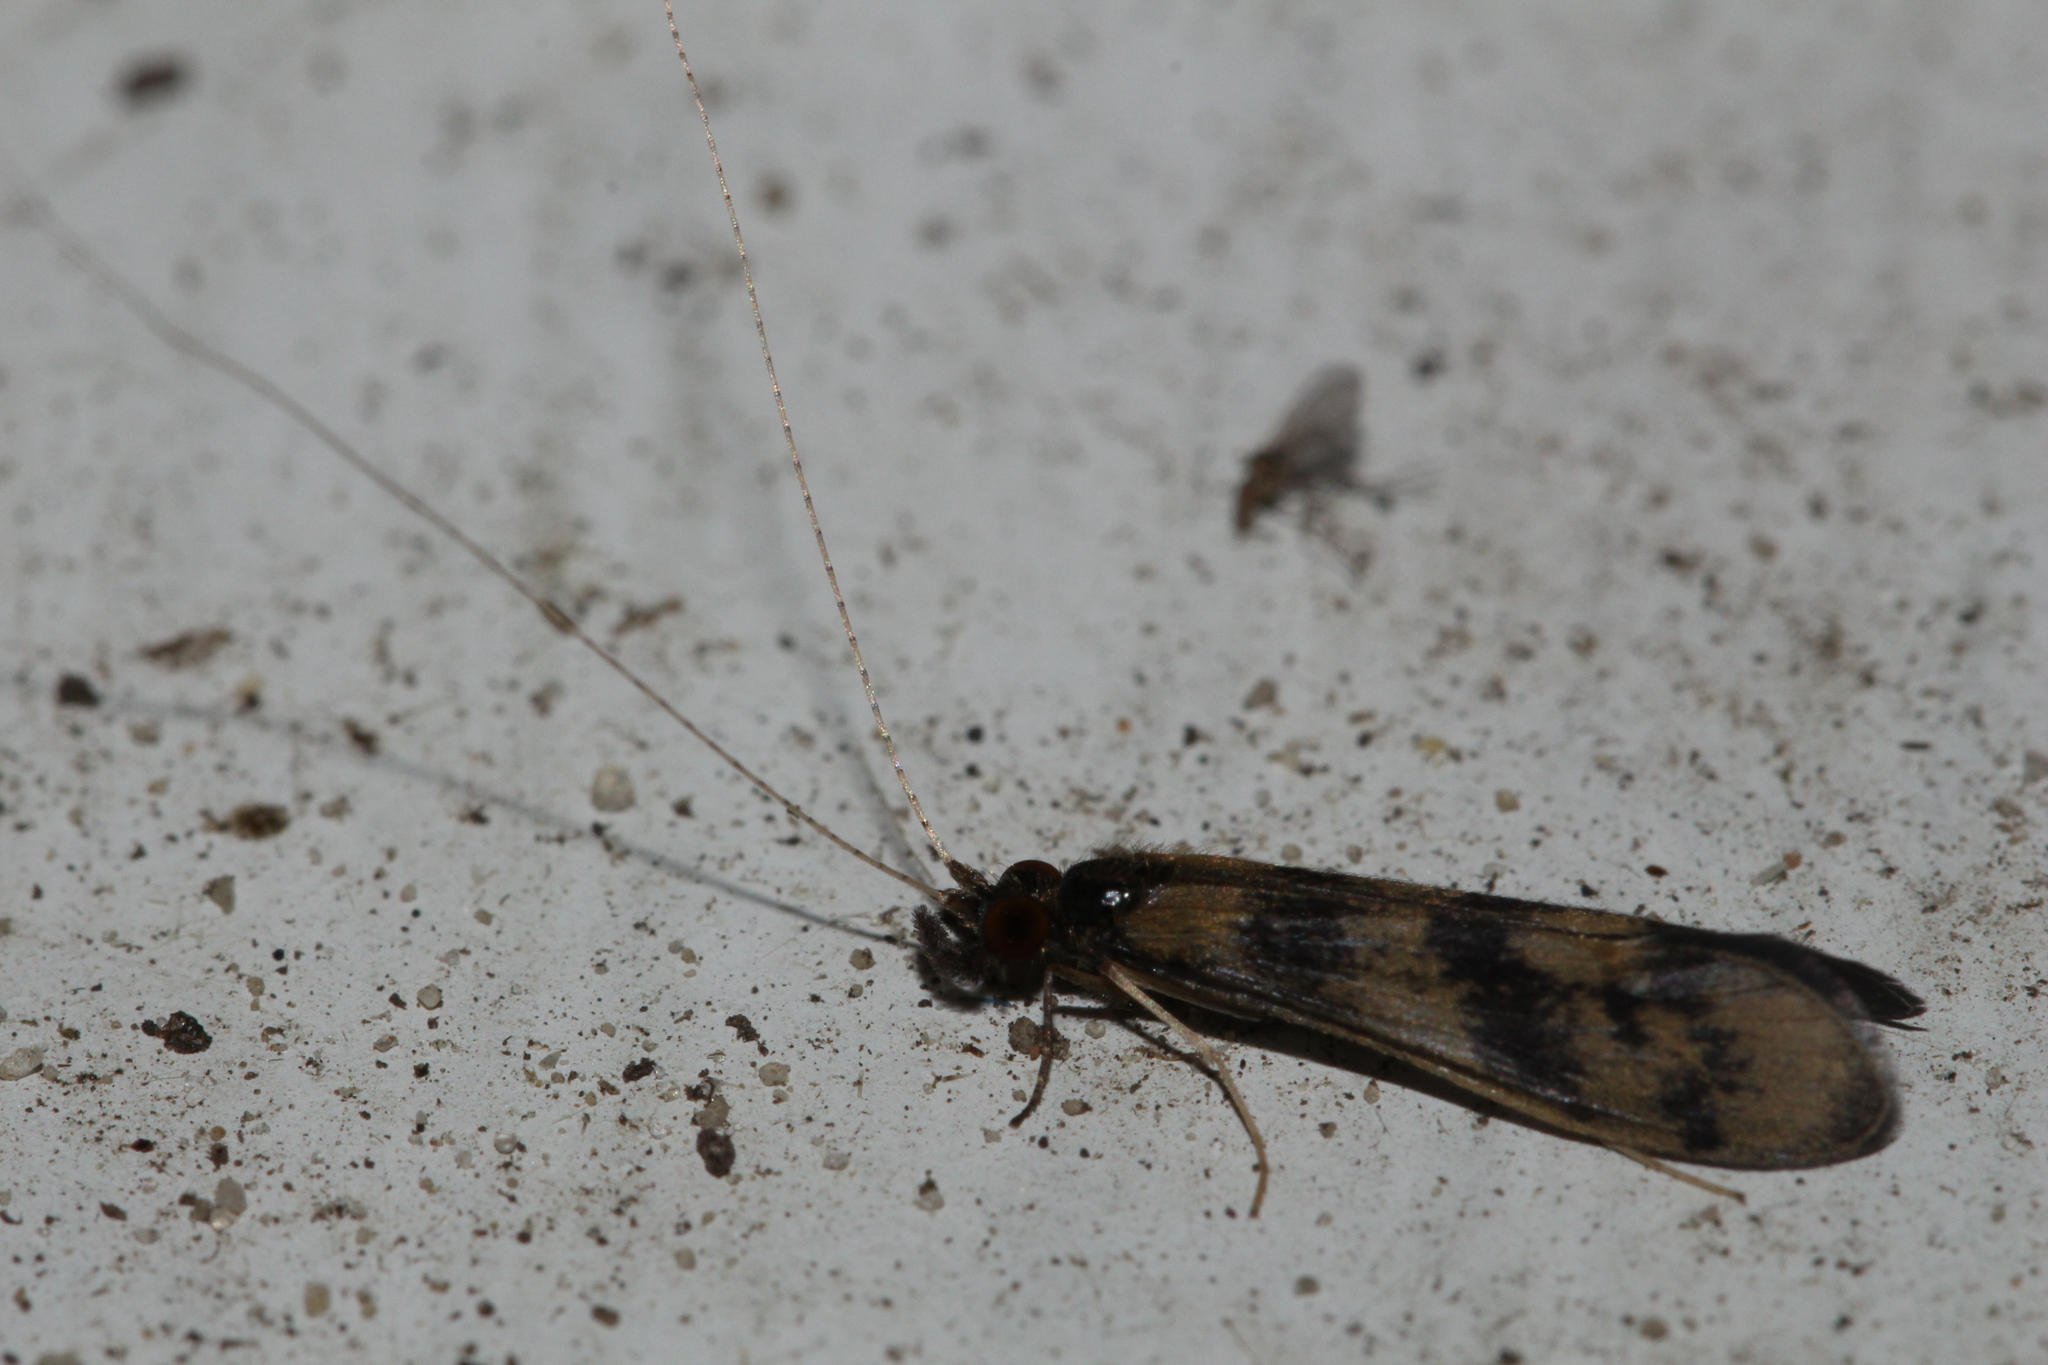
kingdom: Animalia
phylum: Arthropoda
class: Insecta
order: Trichoptera
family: Leptoceridae
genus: Mystacides
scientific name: Mystacides longicornis
